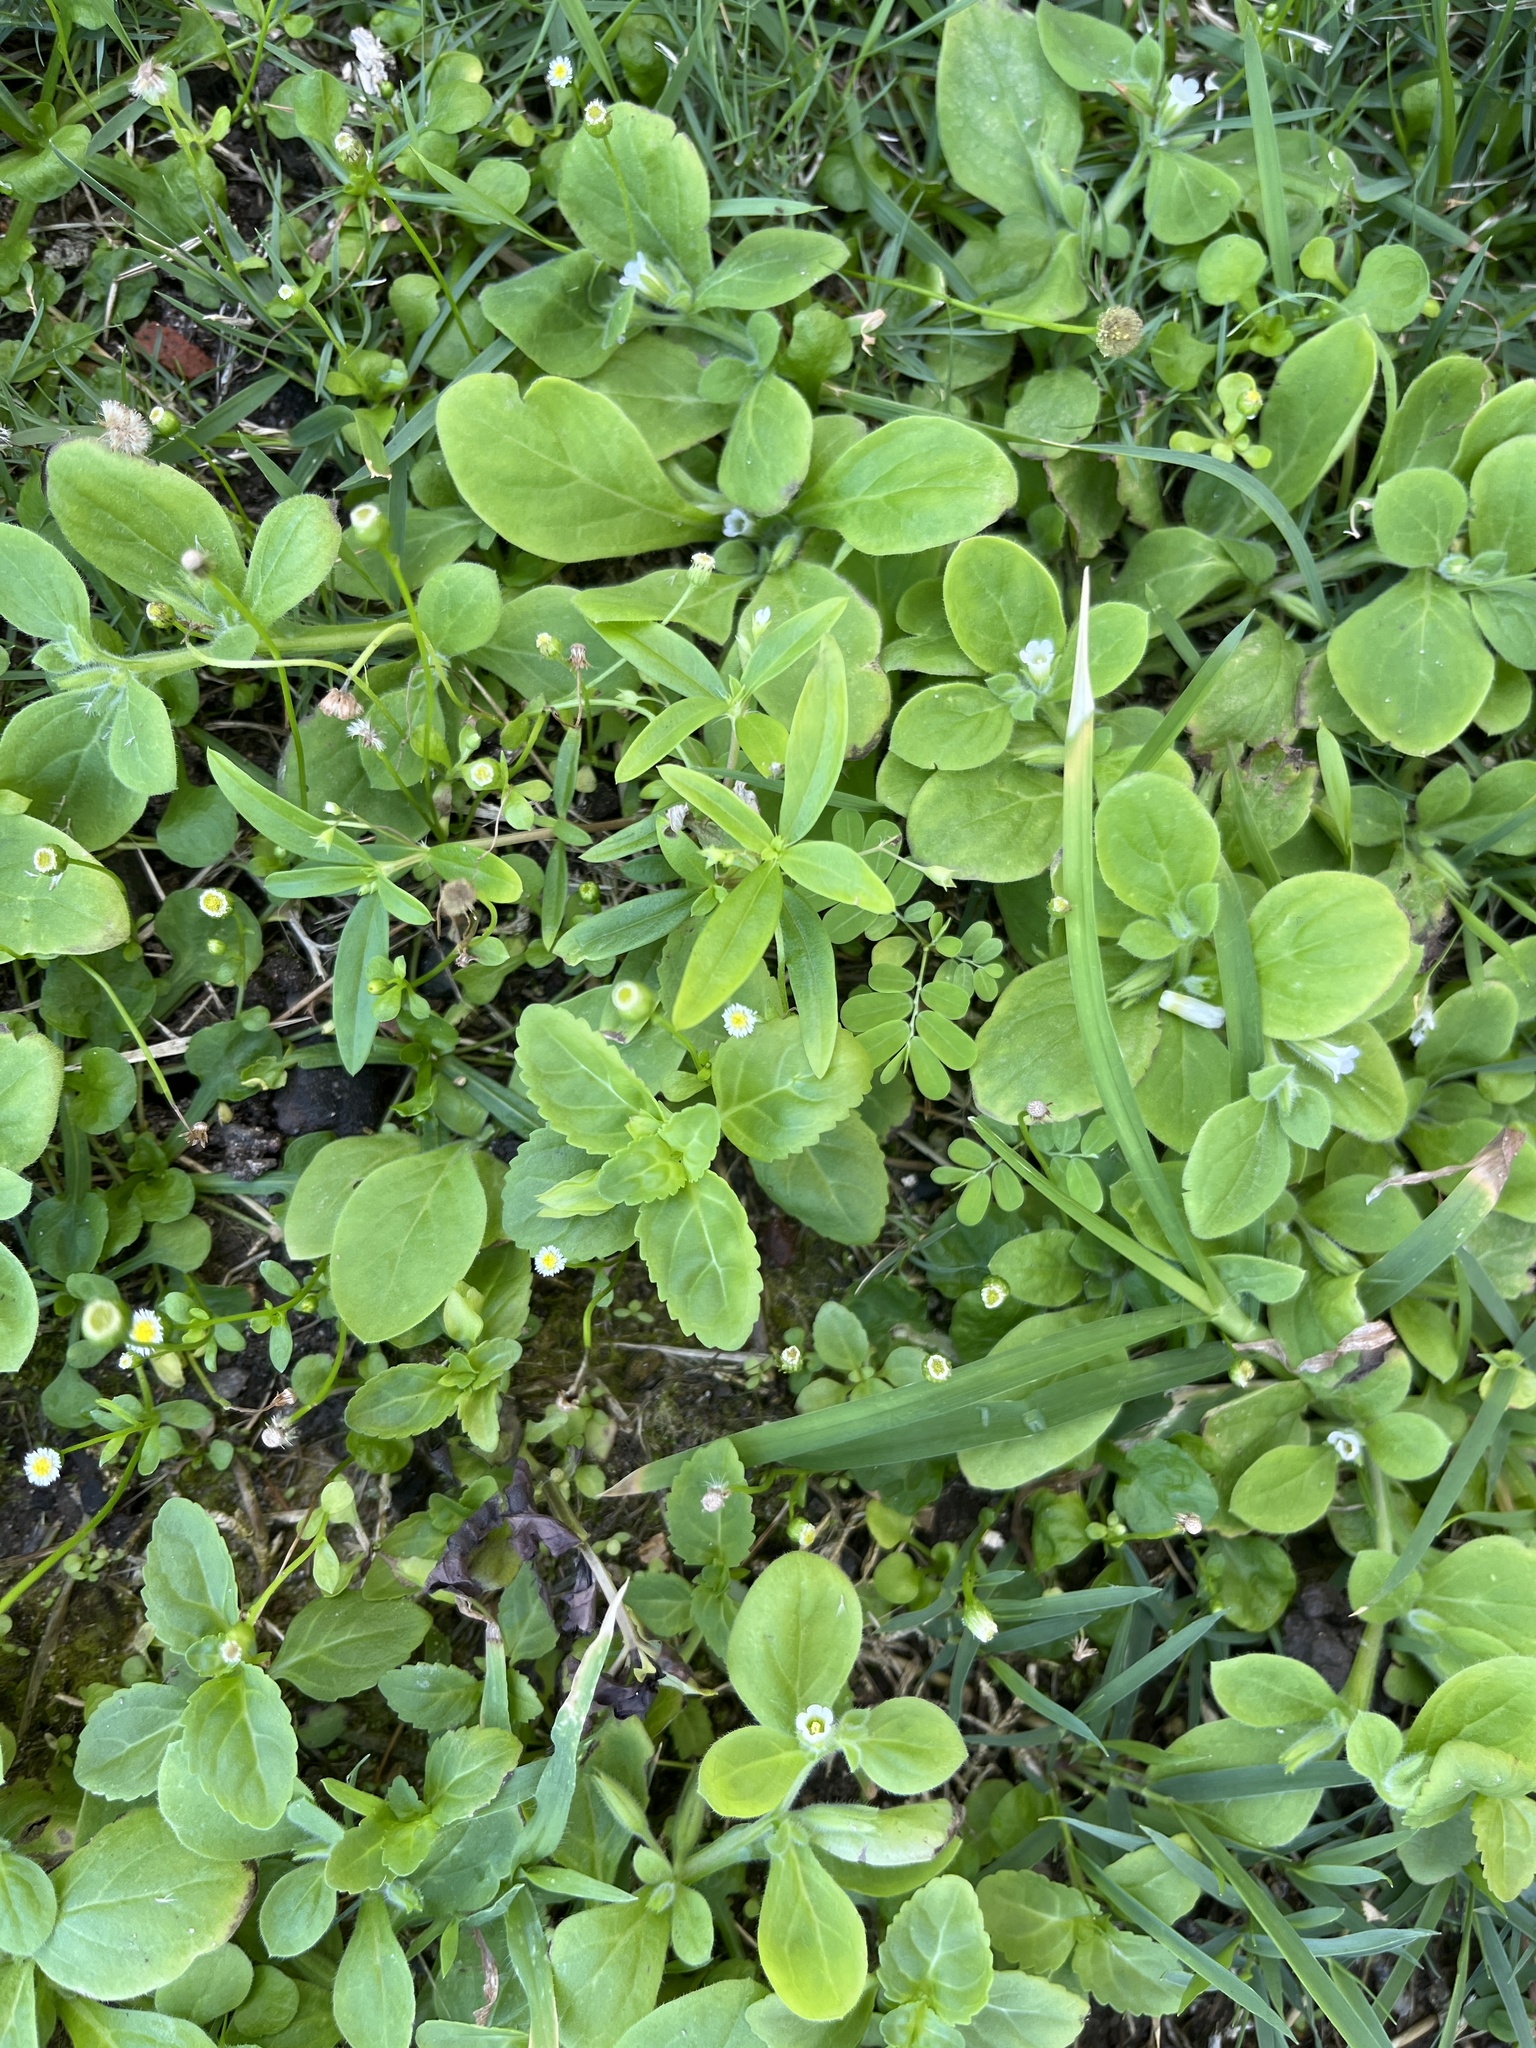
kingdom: Plantae
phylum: Tracheophyta
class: Magnoliopsida
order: Boraginales
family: Namaceae
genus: Nama
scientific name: Nama jamaicensis
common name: Jamaicanweed
